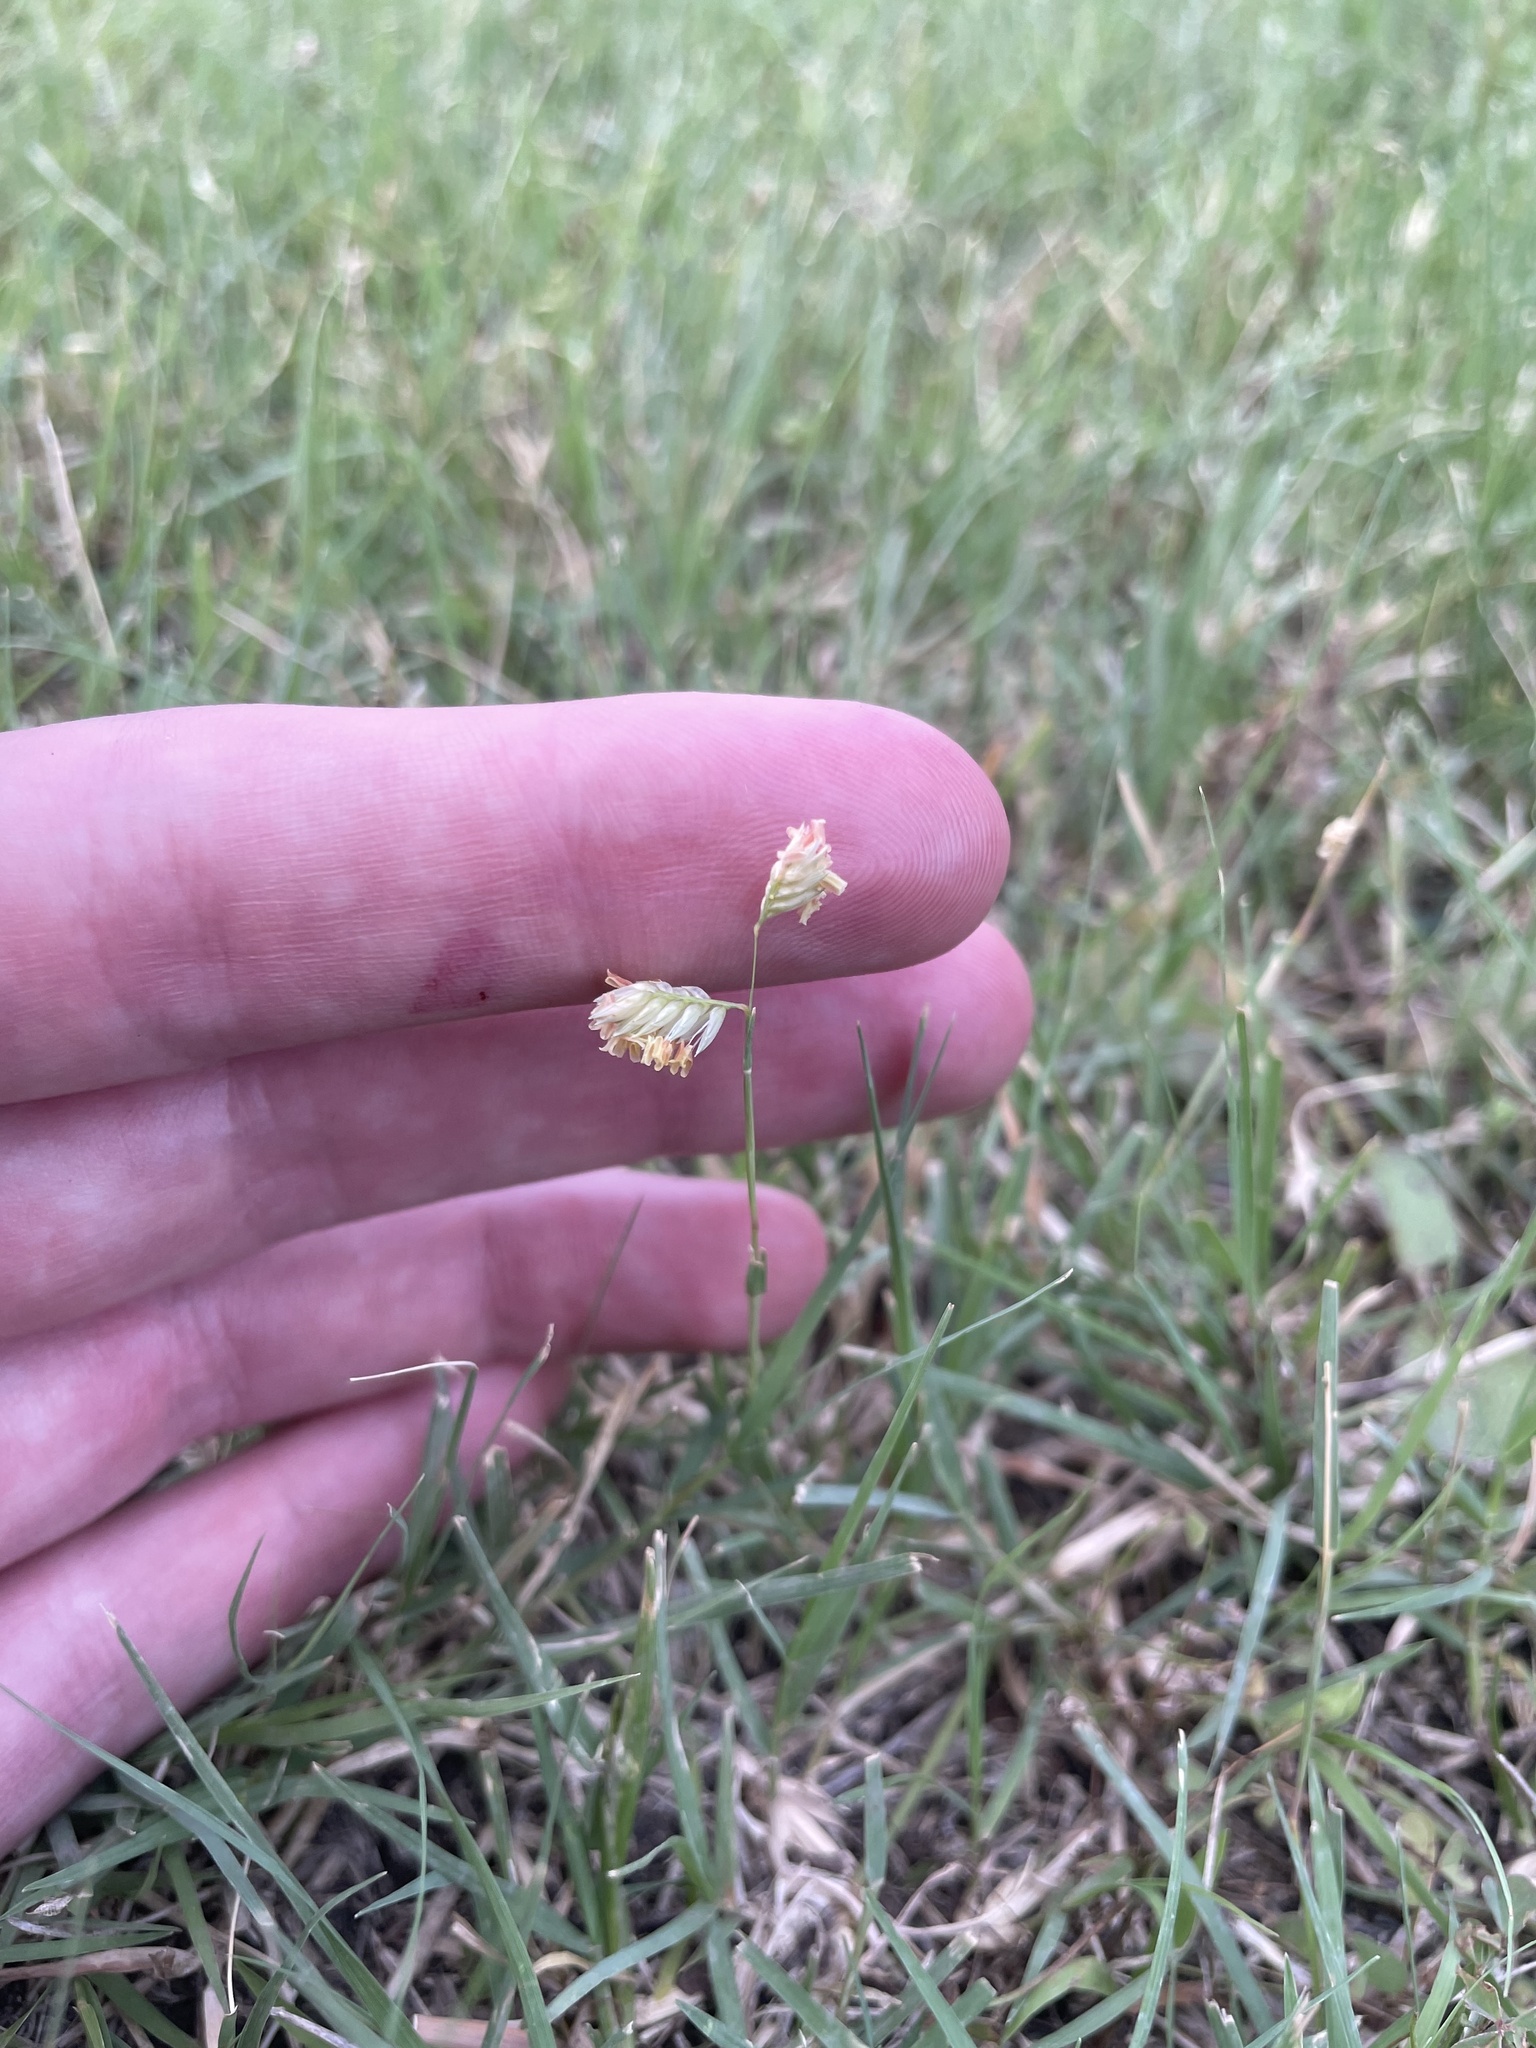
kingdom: Plantae
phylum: Tracheophyta
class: Liliopsida
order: Poales
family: Poaceae
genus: Bouteloua
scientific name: Bouteloua dactyloides
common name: Buffalo grass
